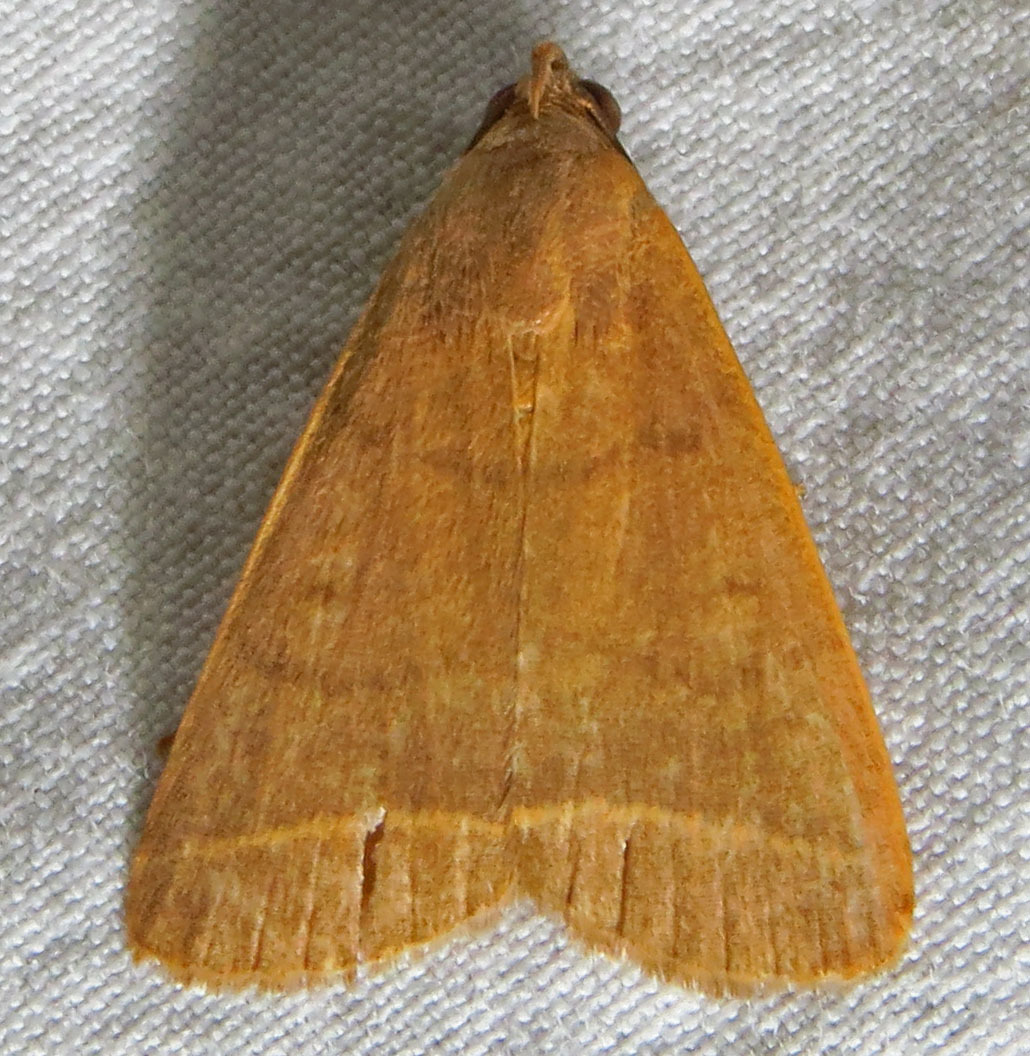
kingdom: Animalia
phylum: Arthropoda
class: Insecta
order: Lepidoptera
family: Erebidae
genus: Simplicia
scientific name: Simplicia cornicalis
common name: Tiki hut litter moth
